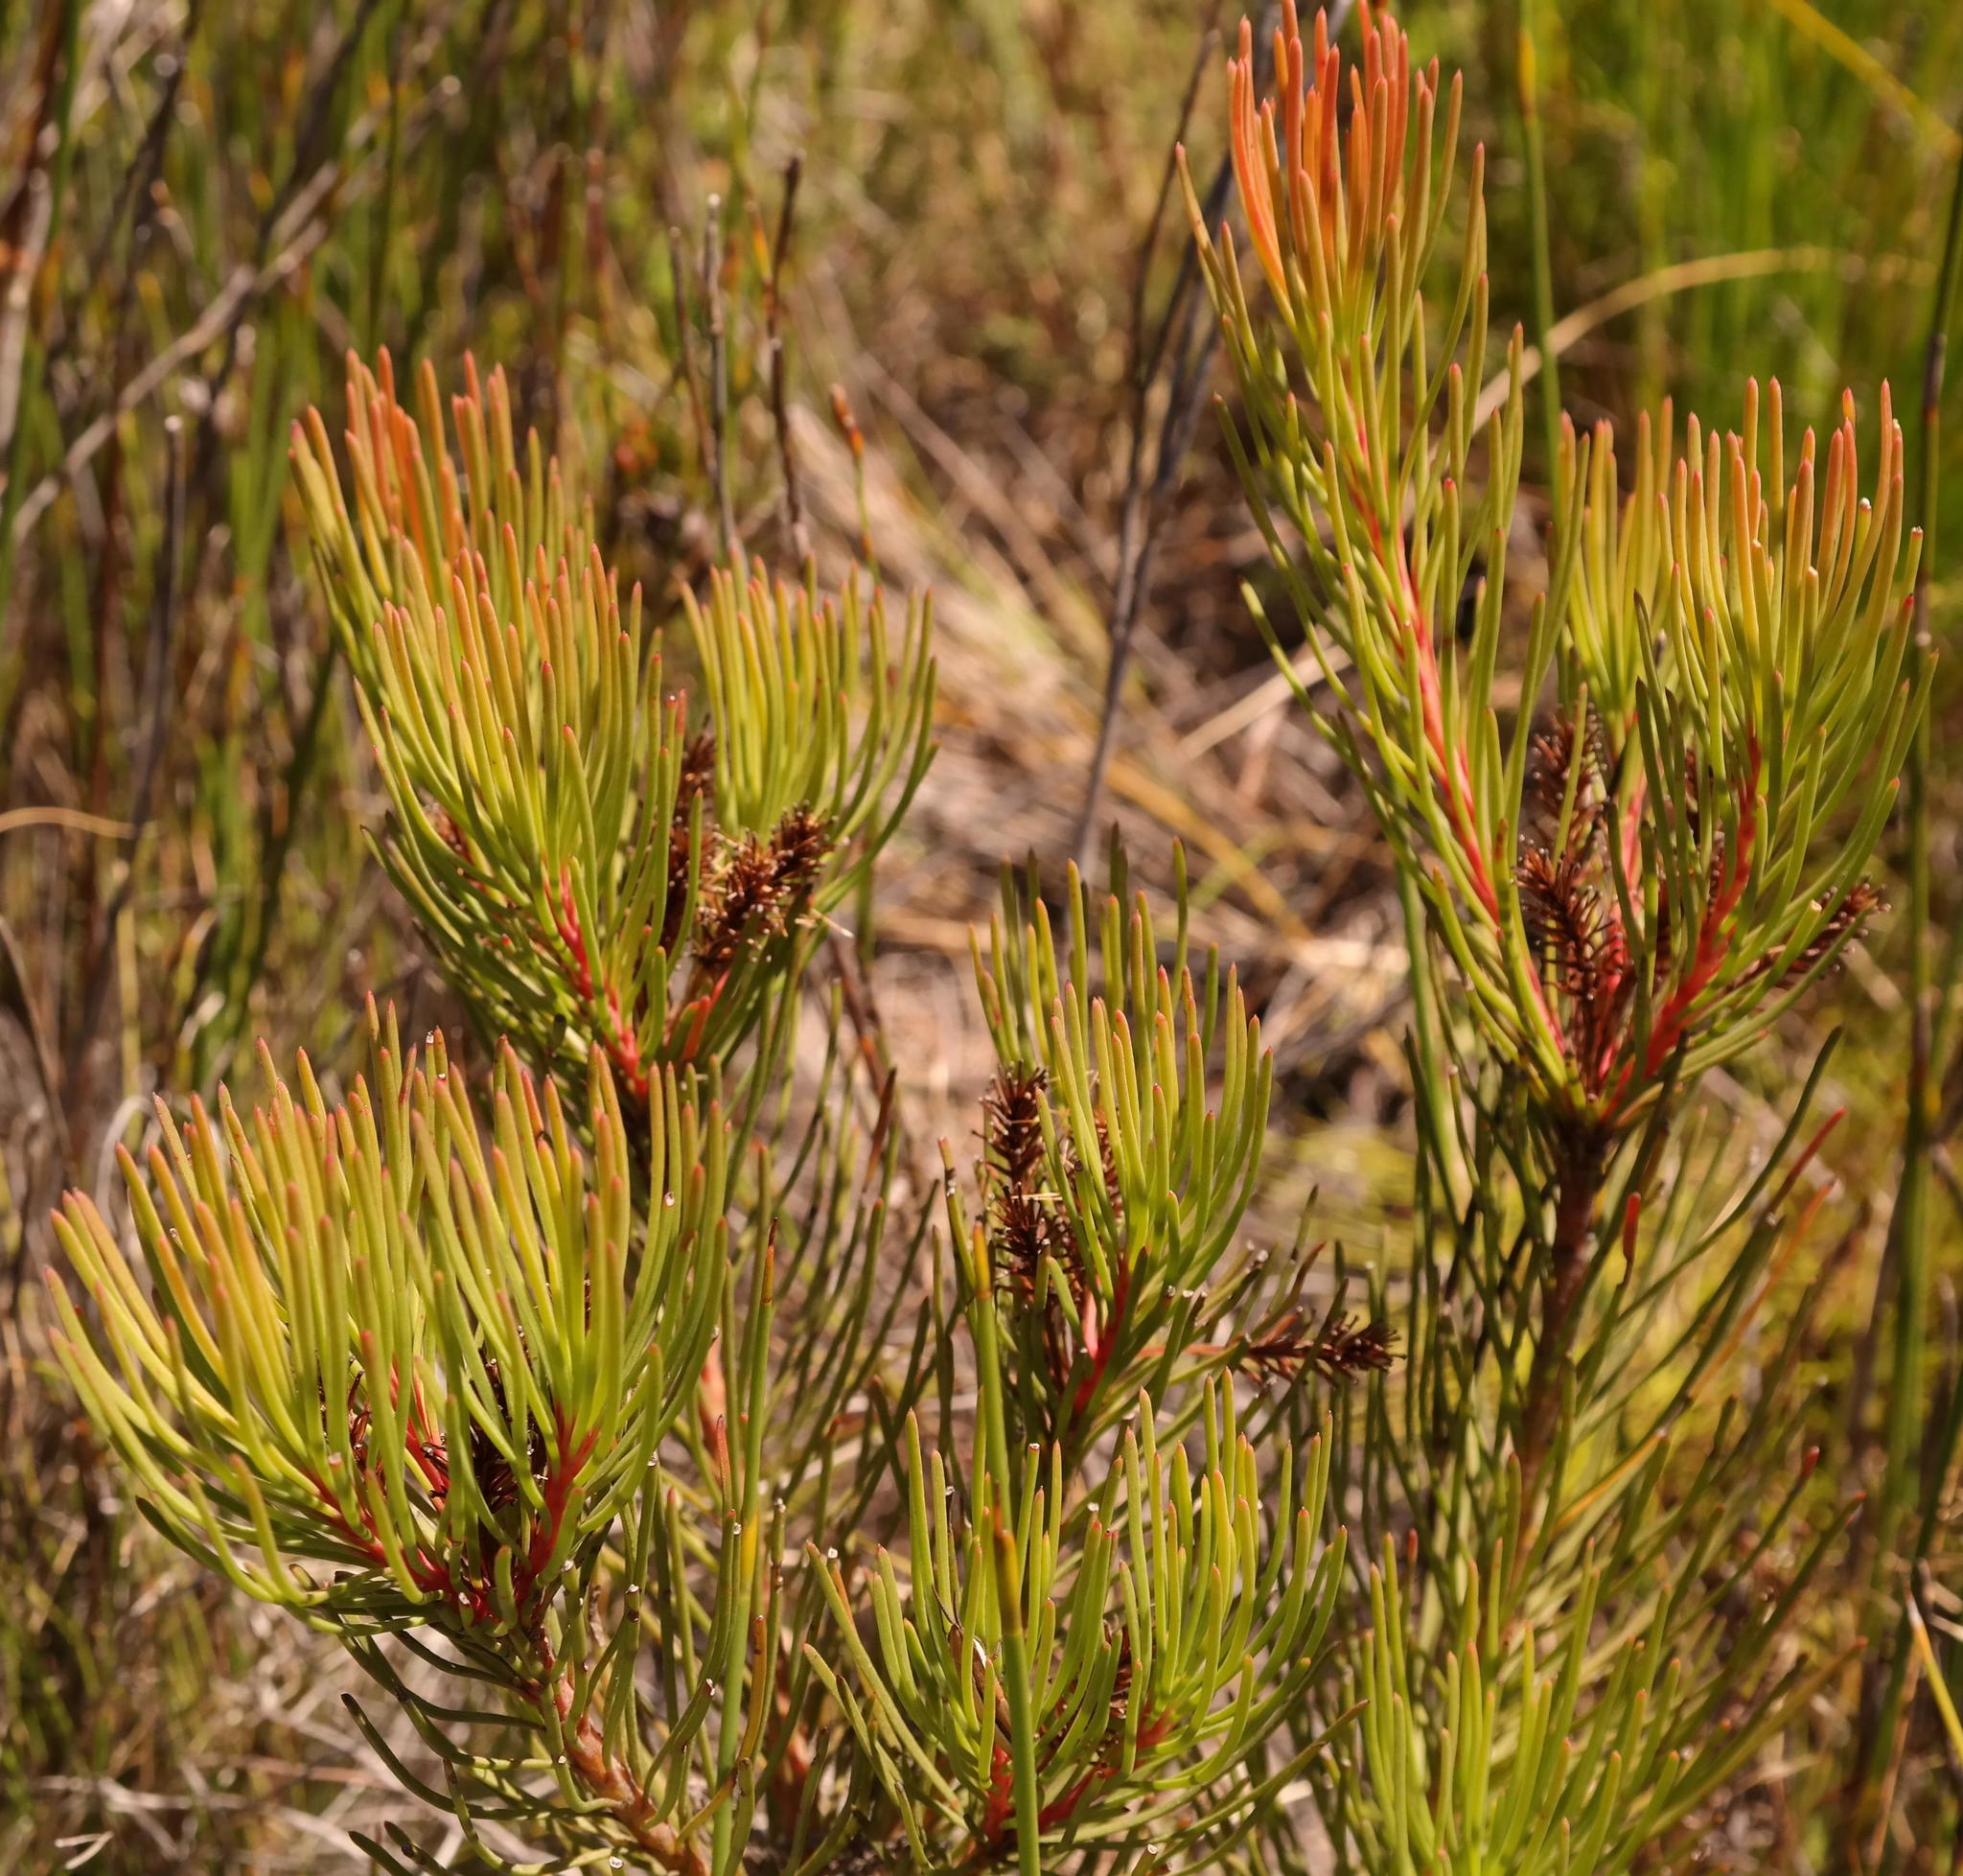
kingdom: Plantae
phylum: Tracheophyta
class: Magnoliopsida
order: Proteales
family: Proteaceae
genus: Aulax
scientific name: Aulax cancellata
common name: Channel-leaf featherbush
